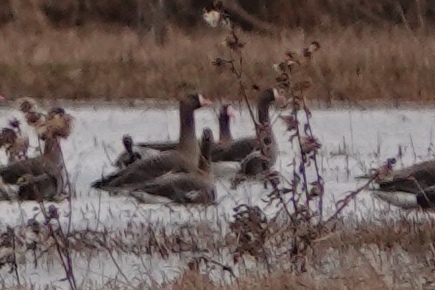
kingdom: Animalia
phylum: Chordata
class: Aves
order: Anseriformes
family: Anatidae
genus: Anser
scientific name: Anser albifrons
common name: Greater white-fronted goose
